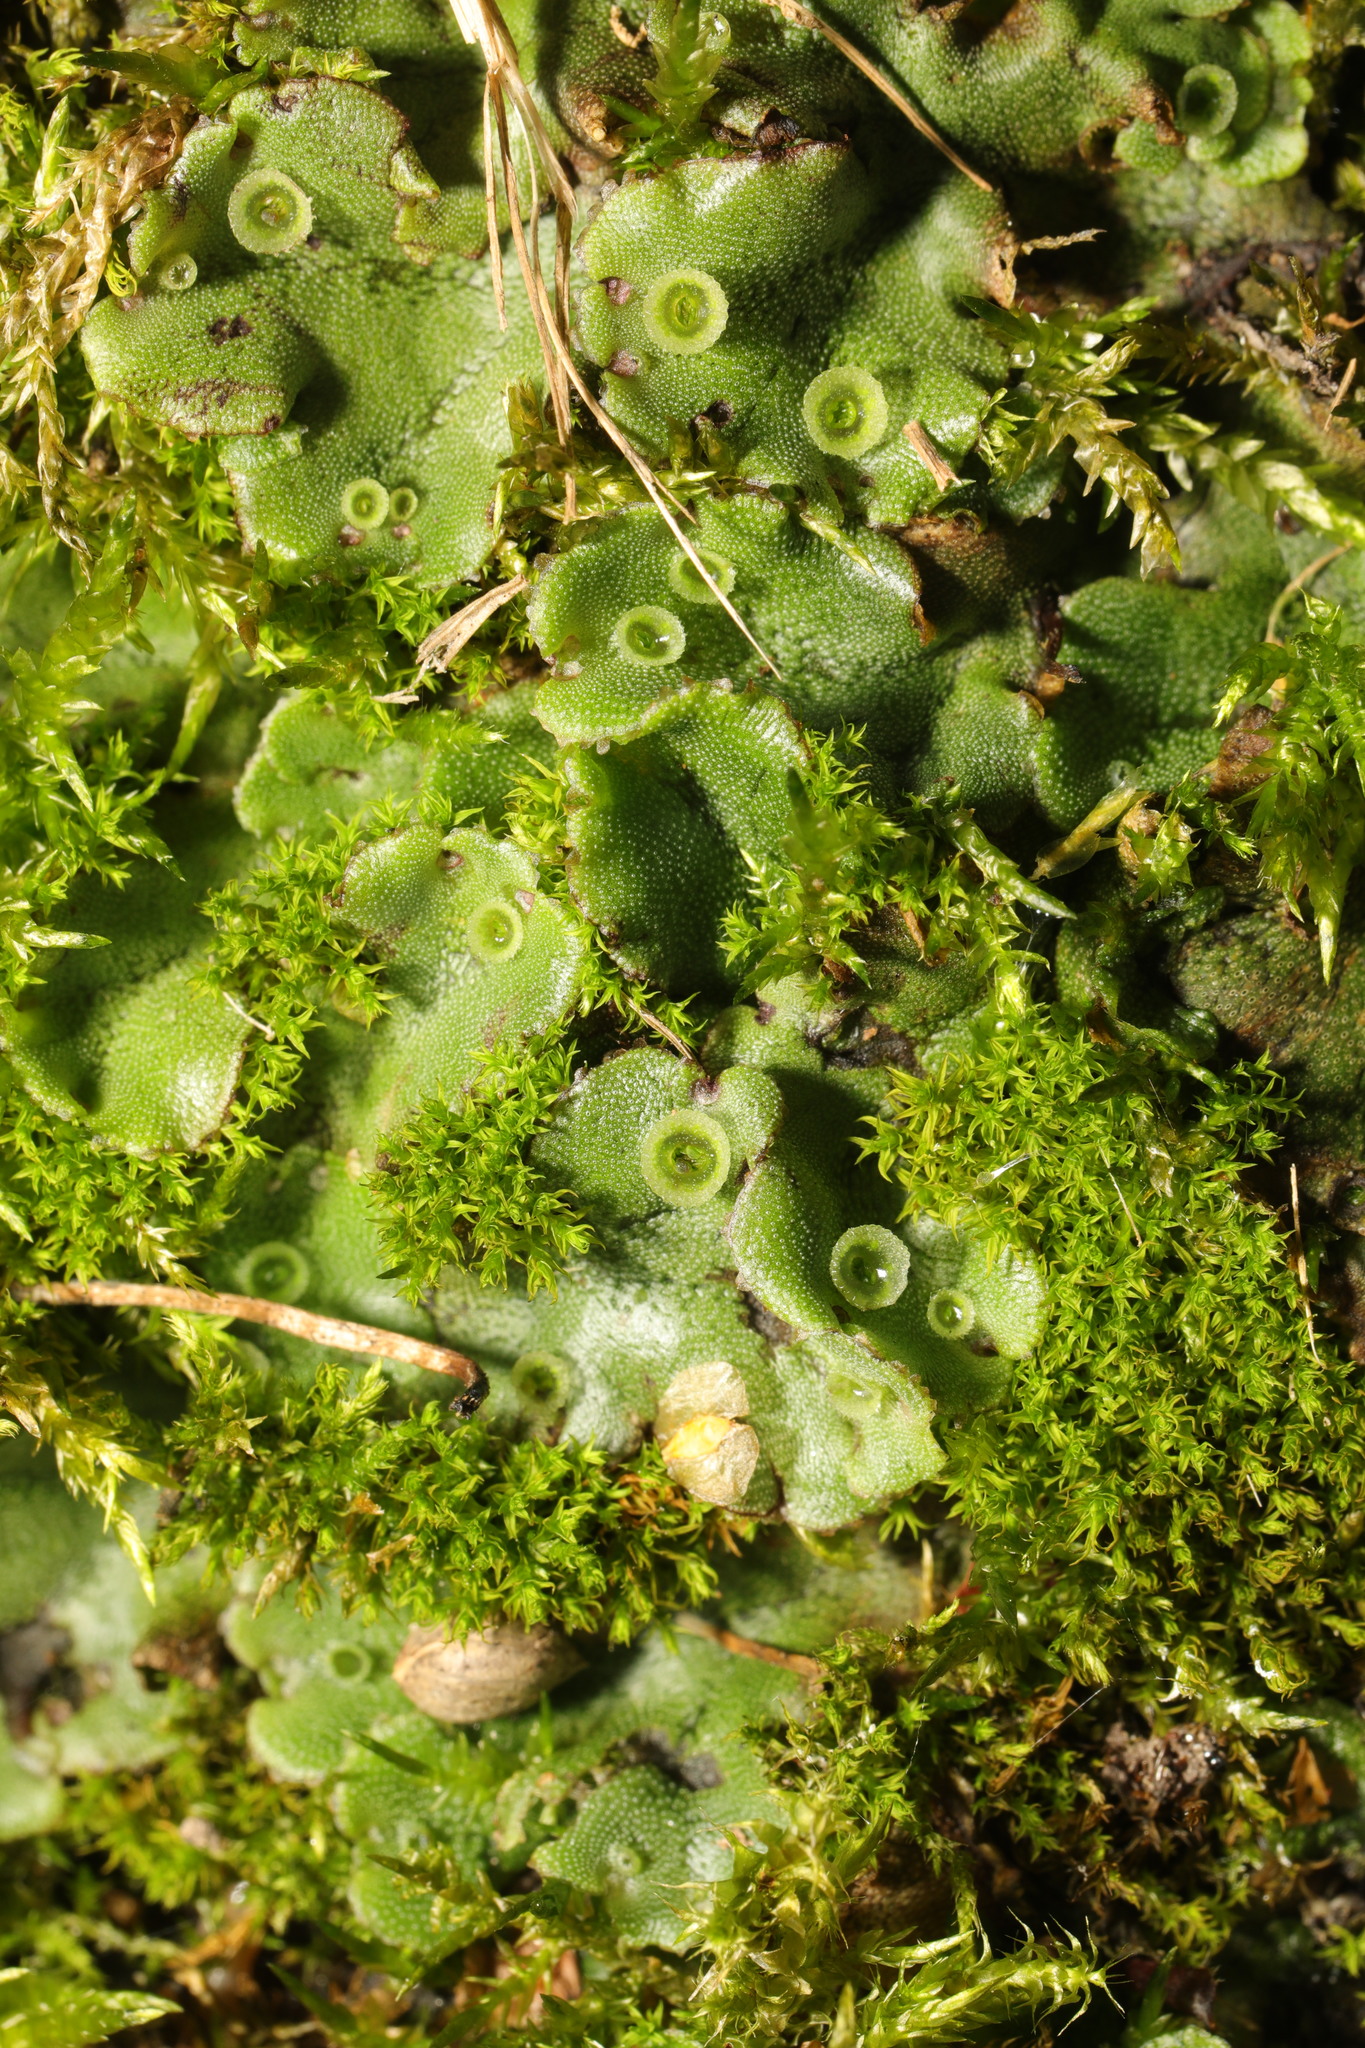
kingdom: Plantae
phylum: Marchantiophyta
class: Marchantiopsida
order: Marchantiales
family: Marchantiaceae
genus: Marchantia
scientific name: Marchantia polymorpha
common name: Common liverwort
